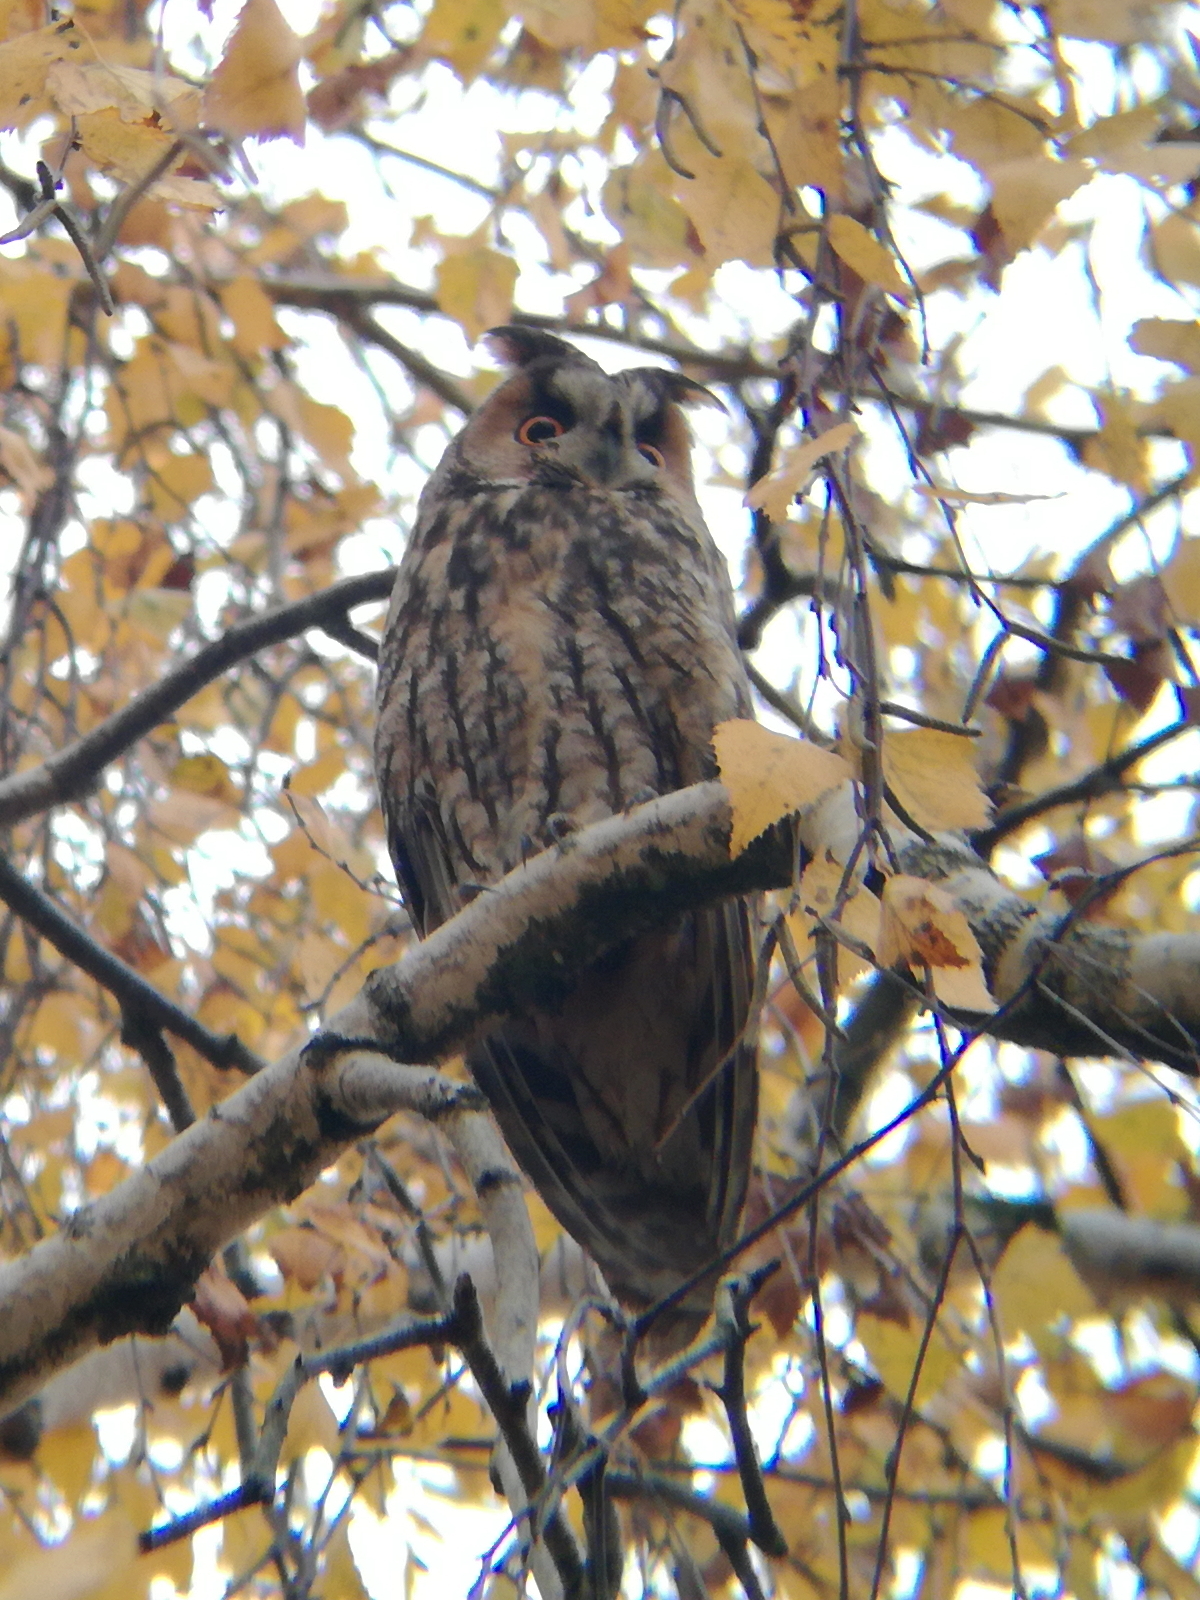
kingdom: Animalia
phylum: Chordata
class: Aves
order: Strigiformes
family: Strigidae
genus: Asio
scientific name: Asio otus
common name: Long-eared owl
